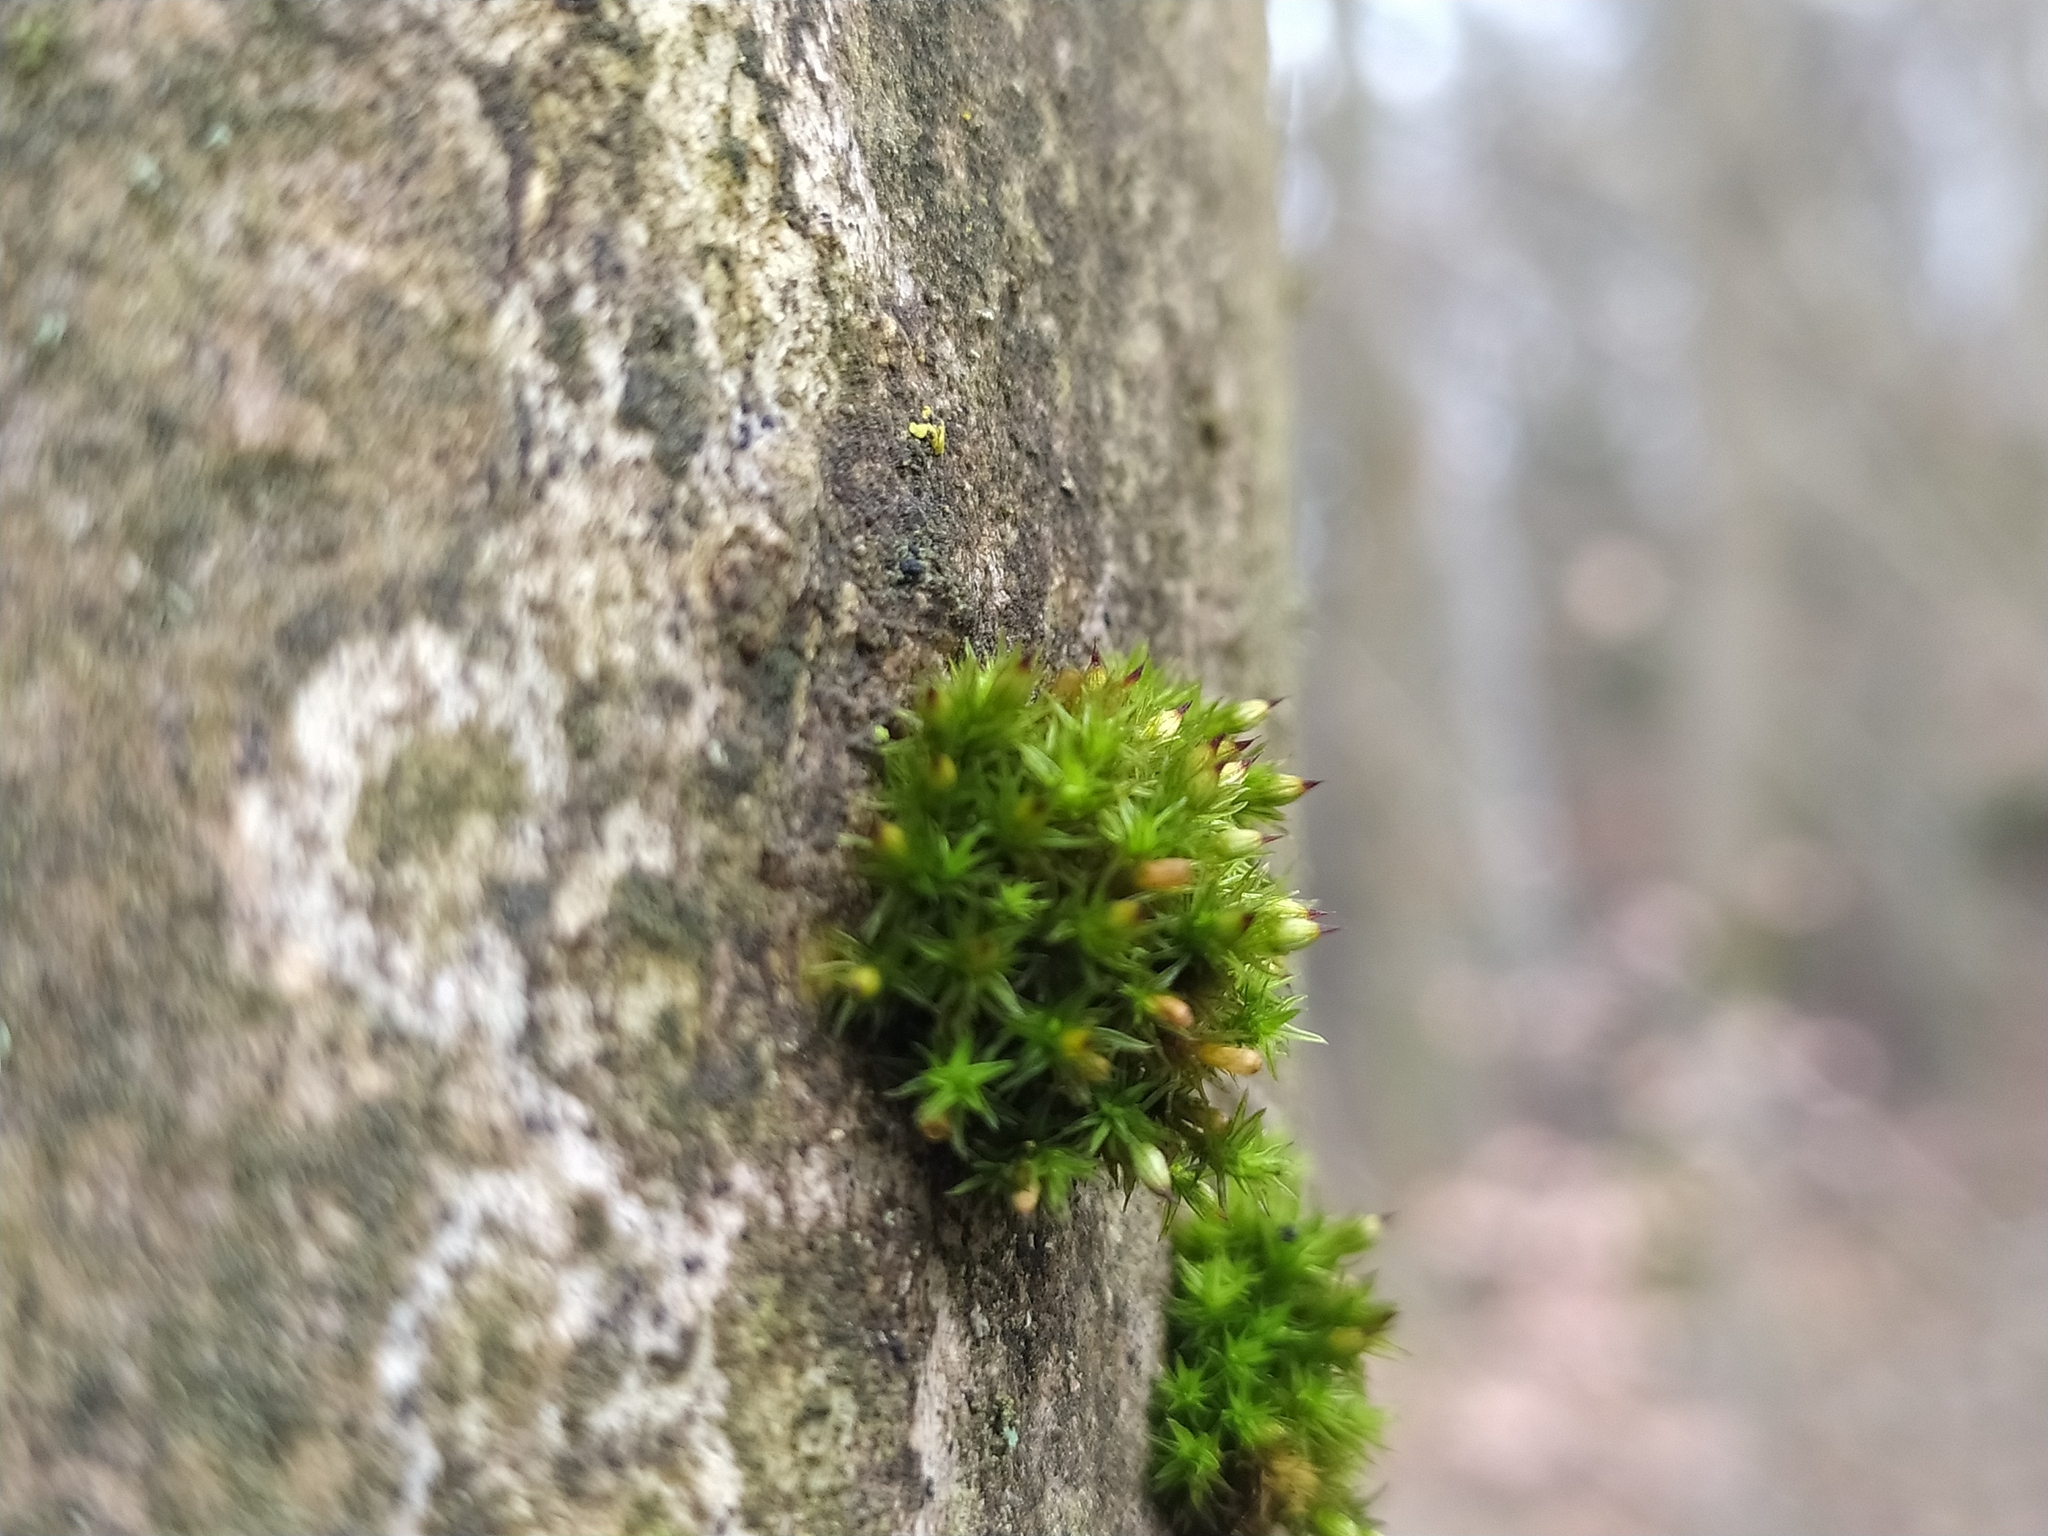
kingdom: Plantae
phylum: Bryophyta
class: Bryopsida
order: Orthotrichales
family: Orthotrichaceae
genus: Orthotrichum
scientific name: Orthotrichum stramineum
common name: Straw bristle-moss
